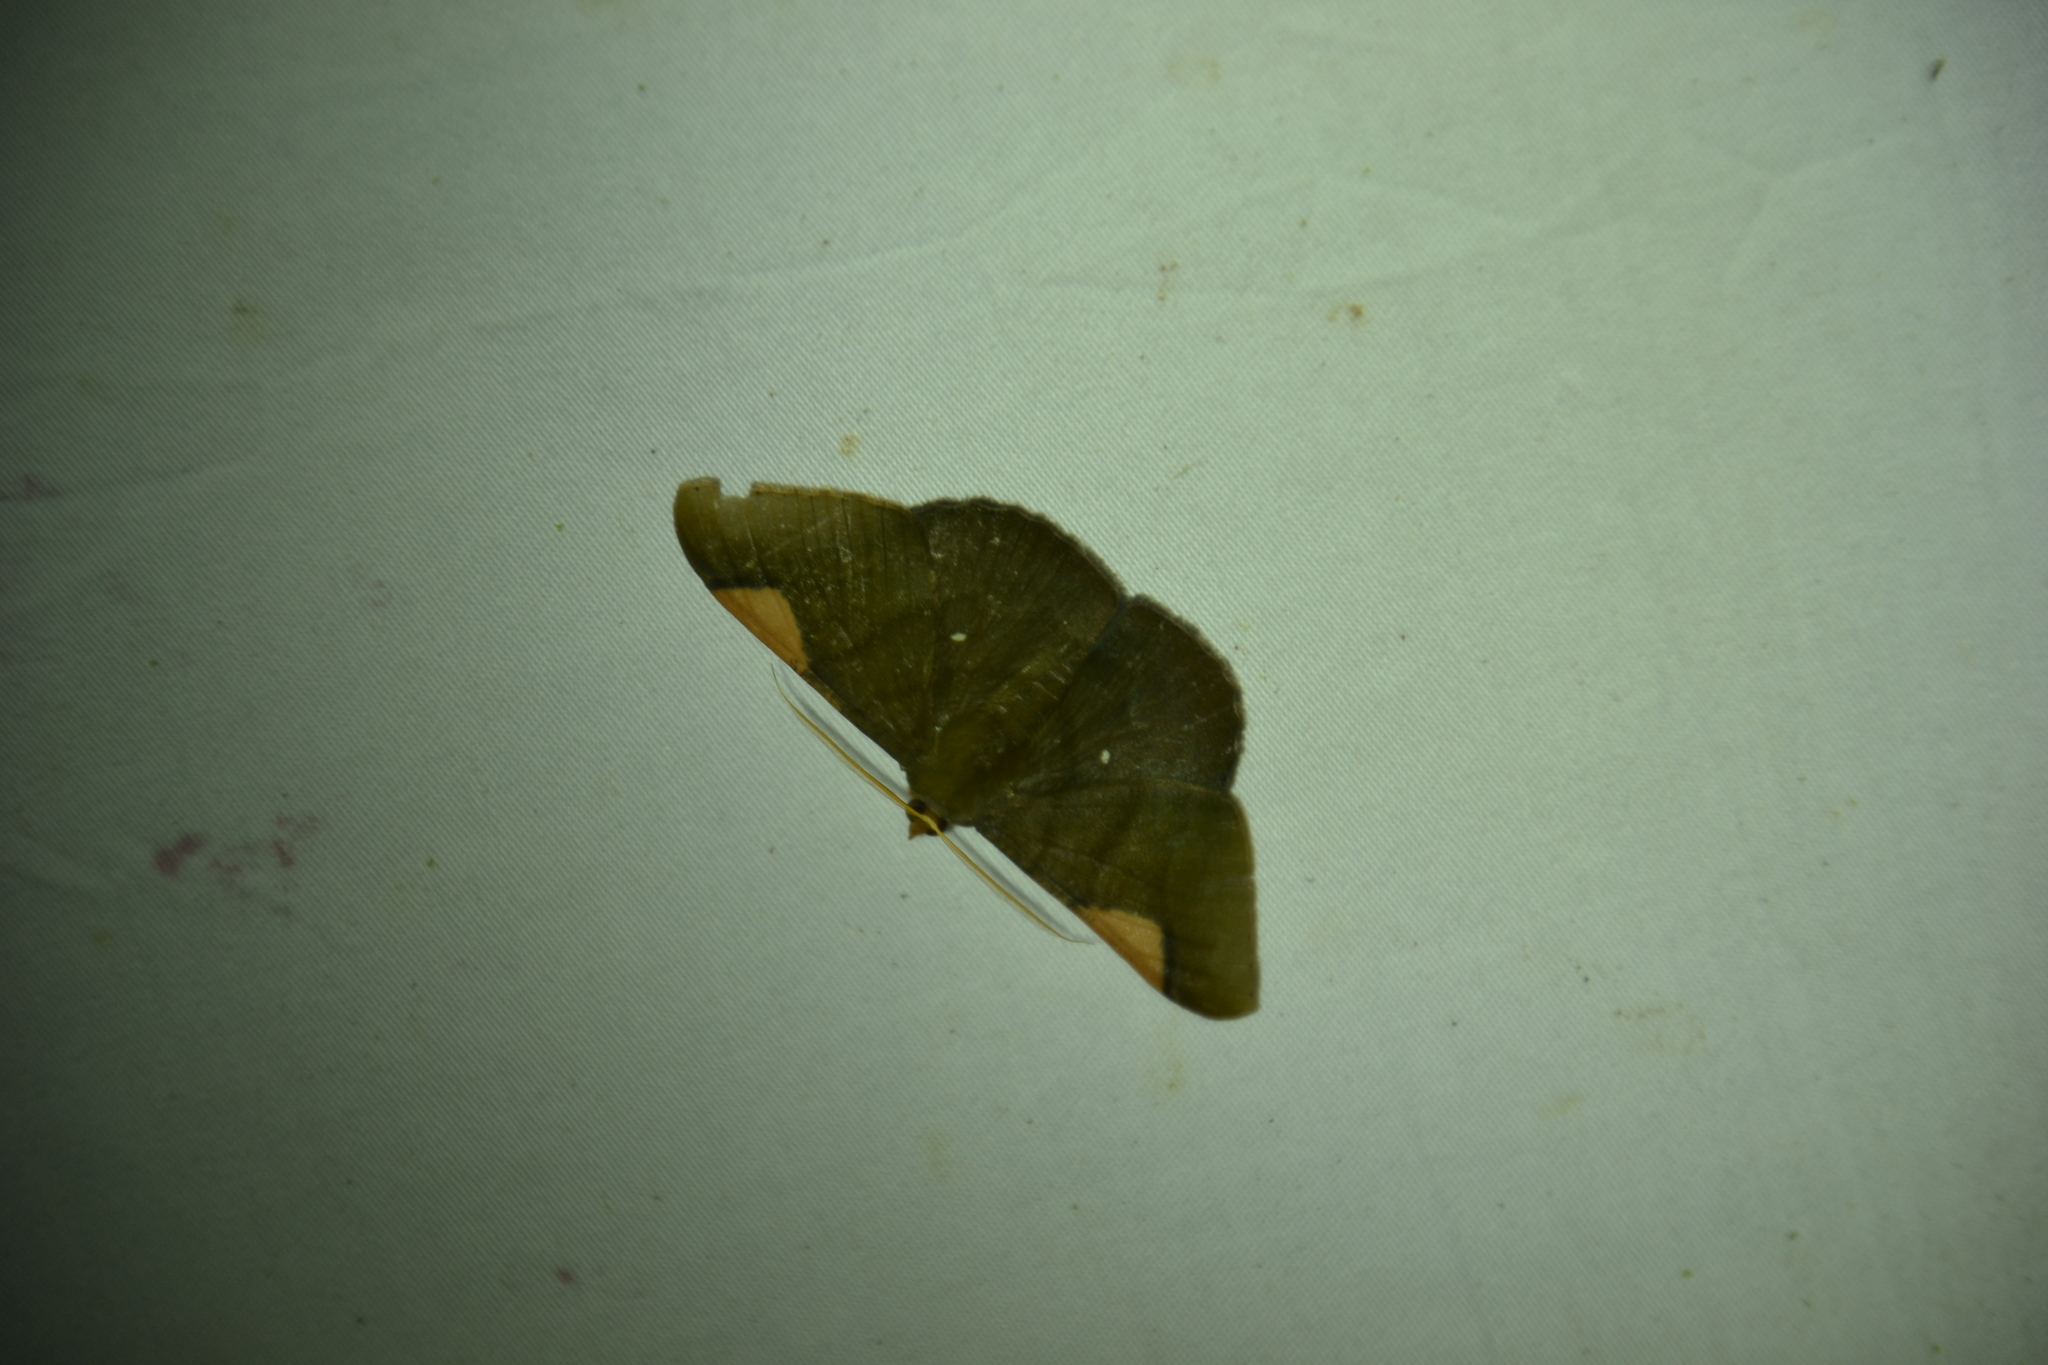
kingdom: Animalia
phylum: Arthropoda
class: Insecta
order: Lepidoptera
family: Geometridae
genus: Sphacelodes
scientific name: Sphacelodes vulneraria
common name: Looper moth
